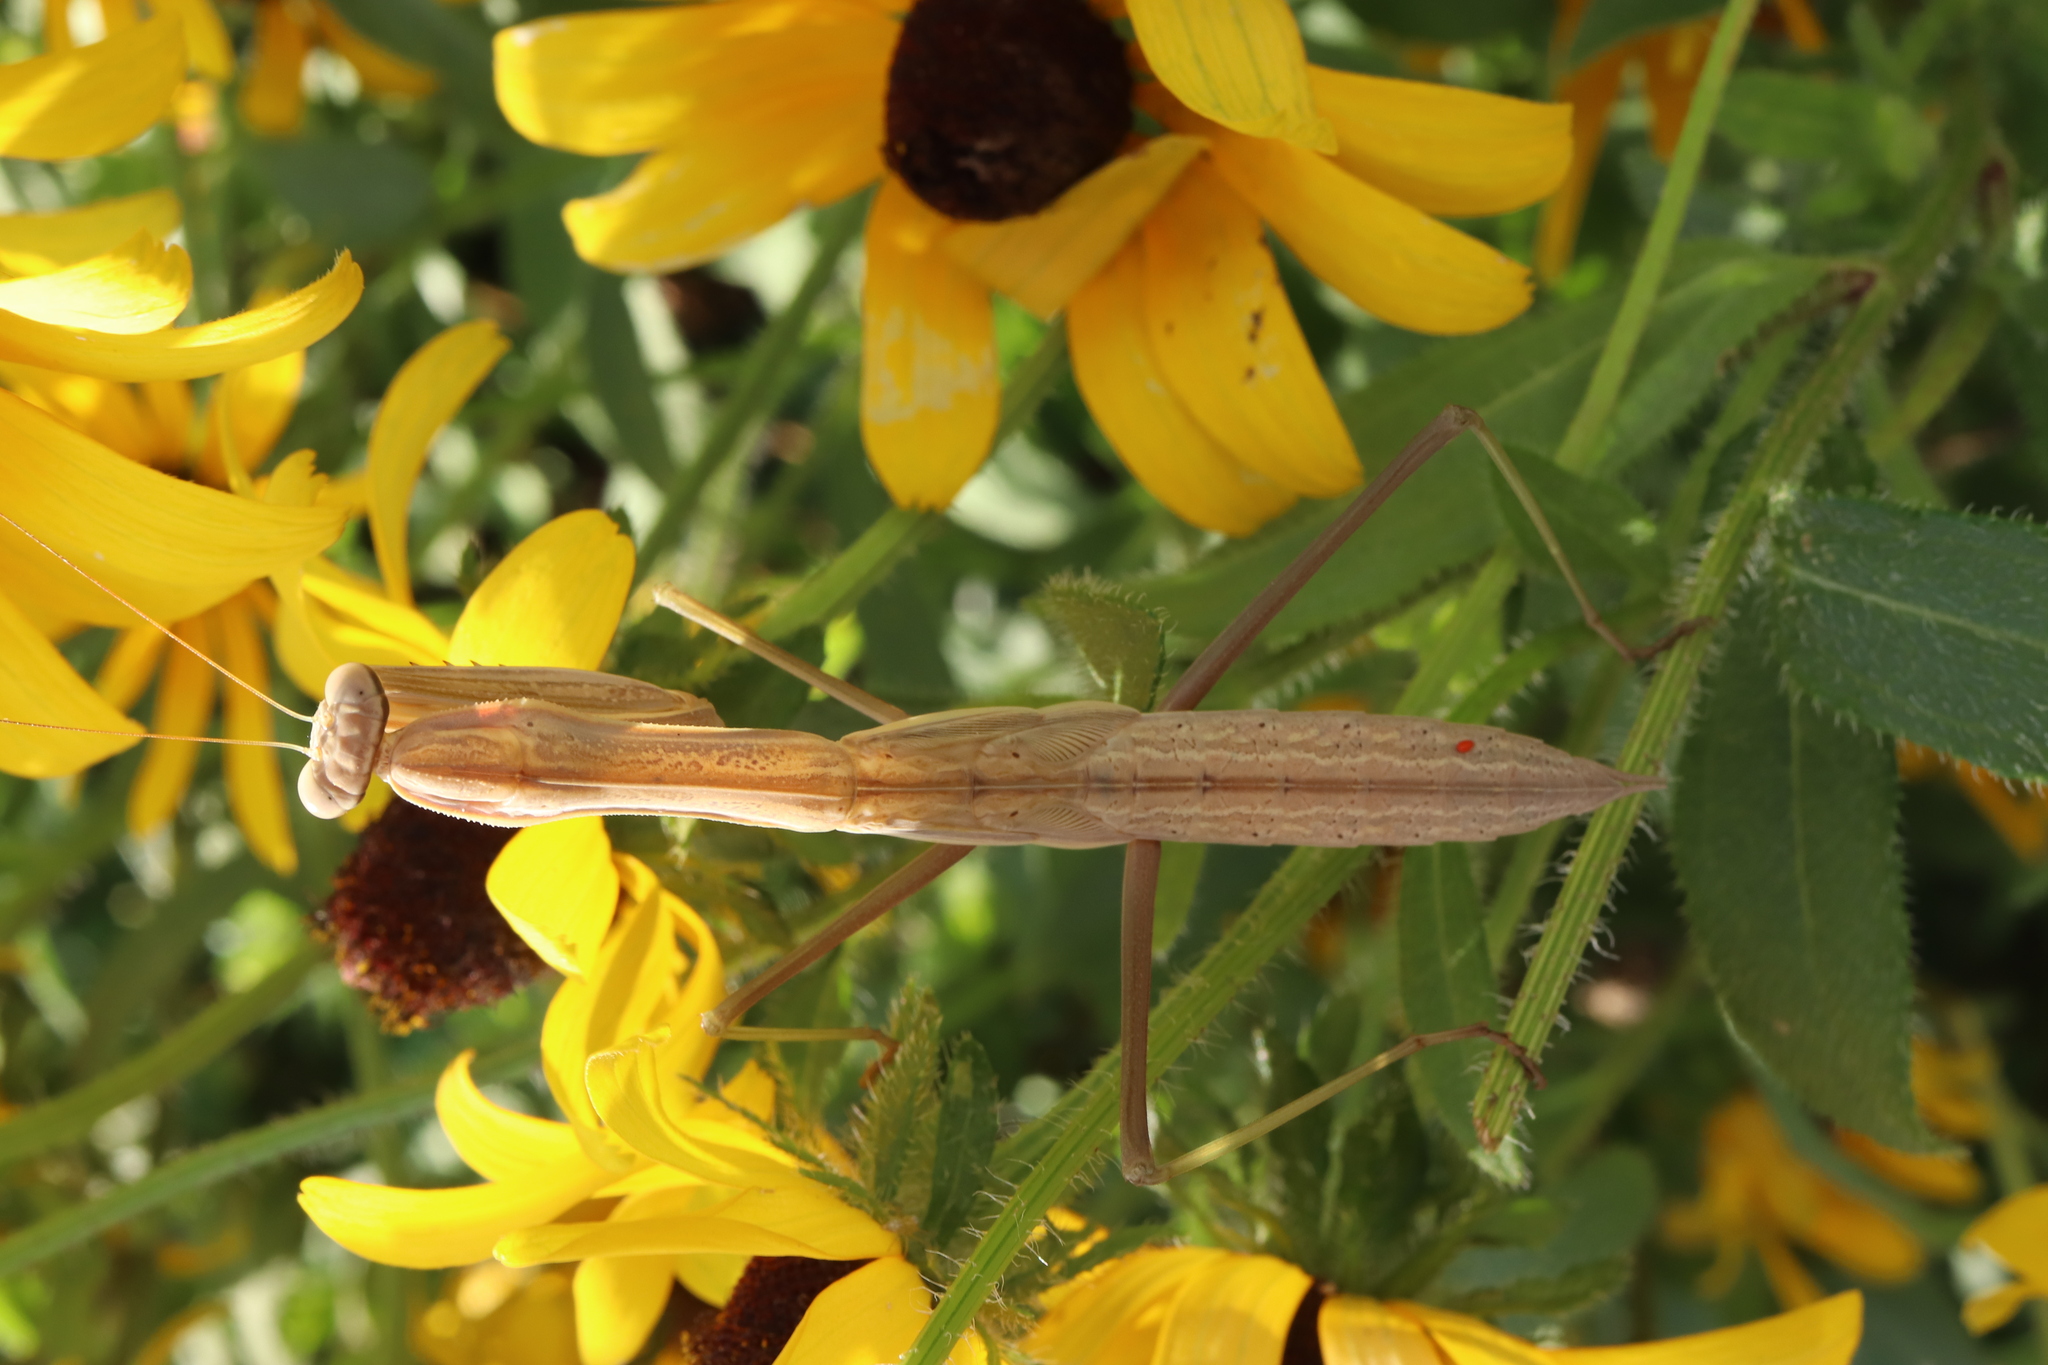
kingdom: Animalia
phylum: Arthropoda
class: Insecta
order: Mantodea
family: Mantidae
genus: Tenodera
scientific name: Tenodera sinensis
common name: Chinese mantis
